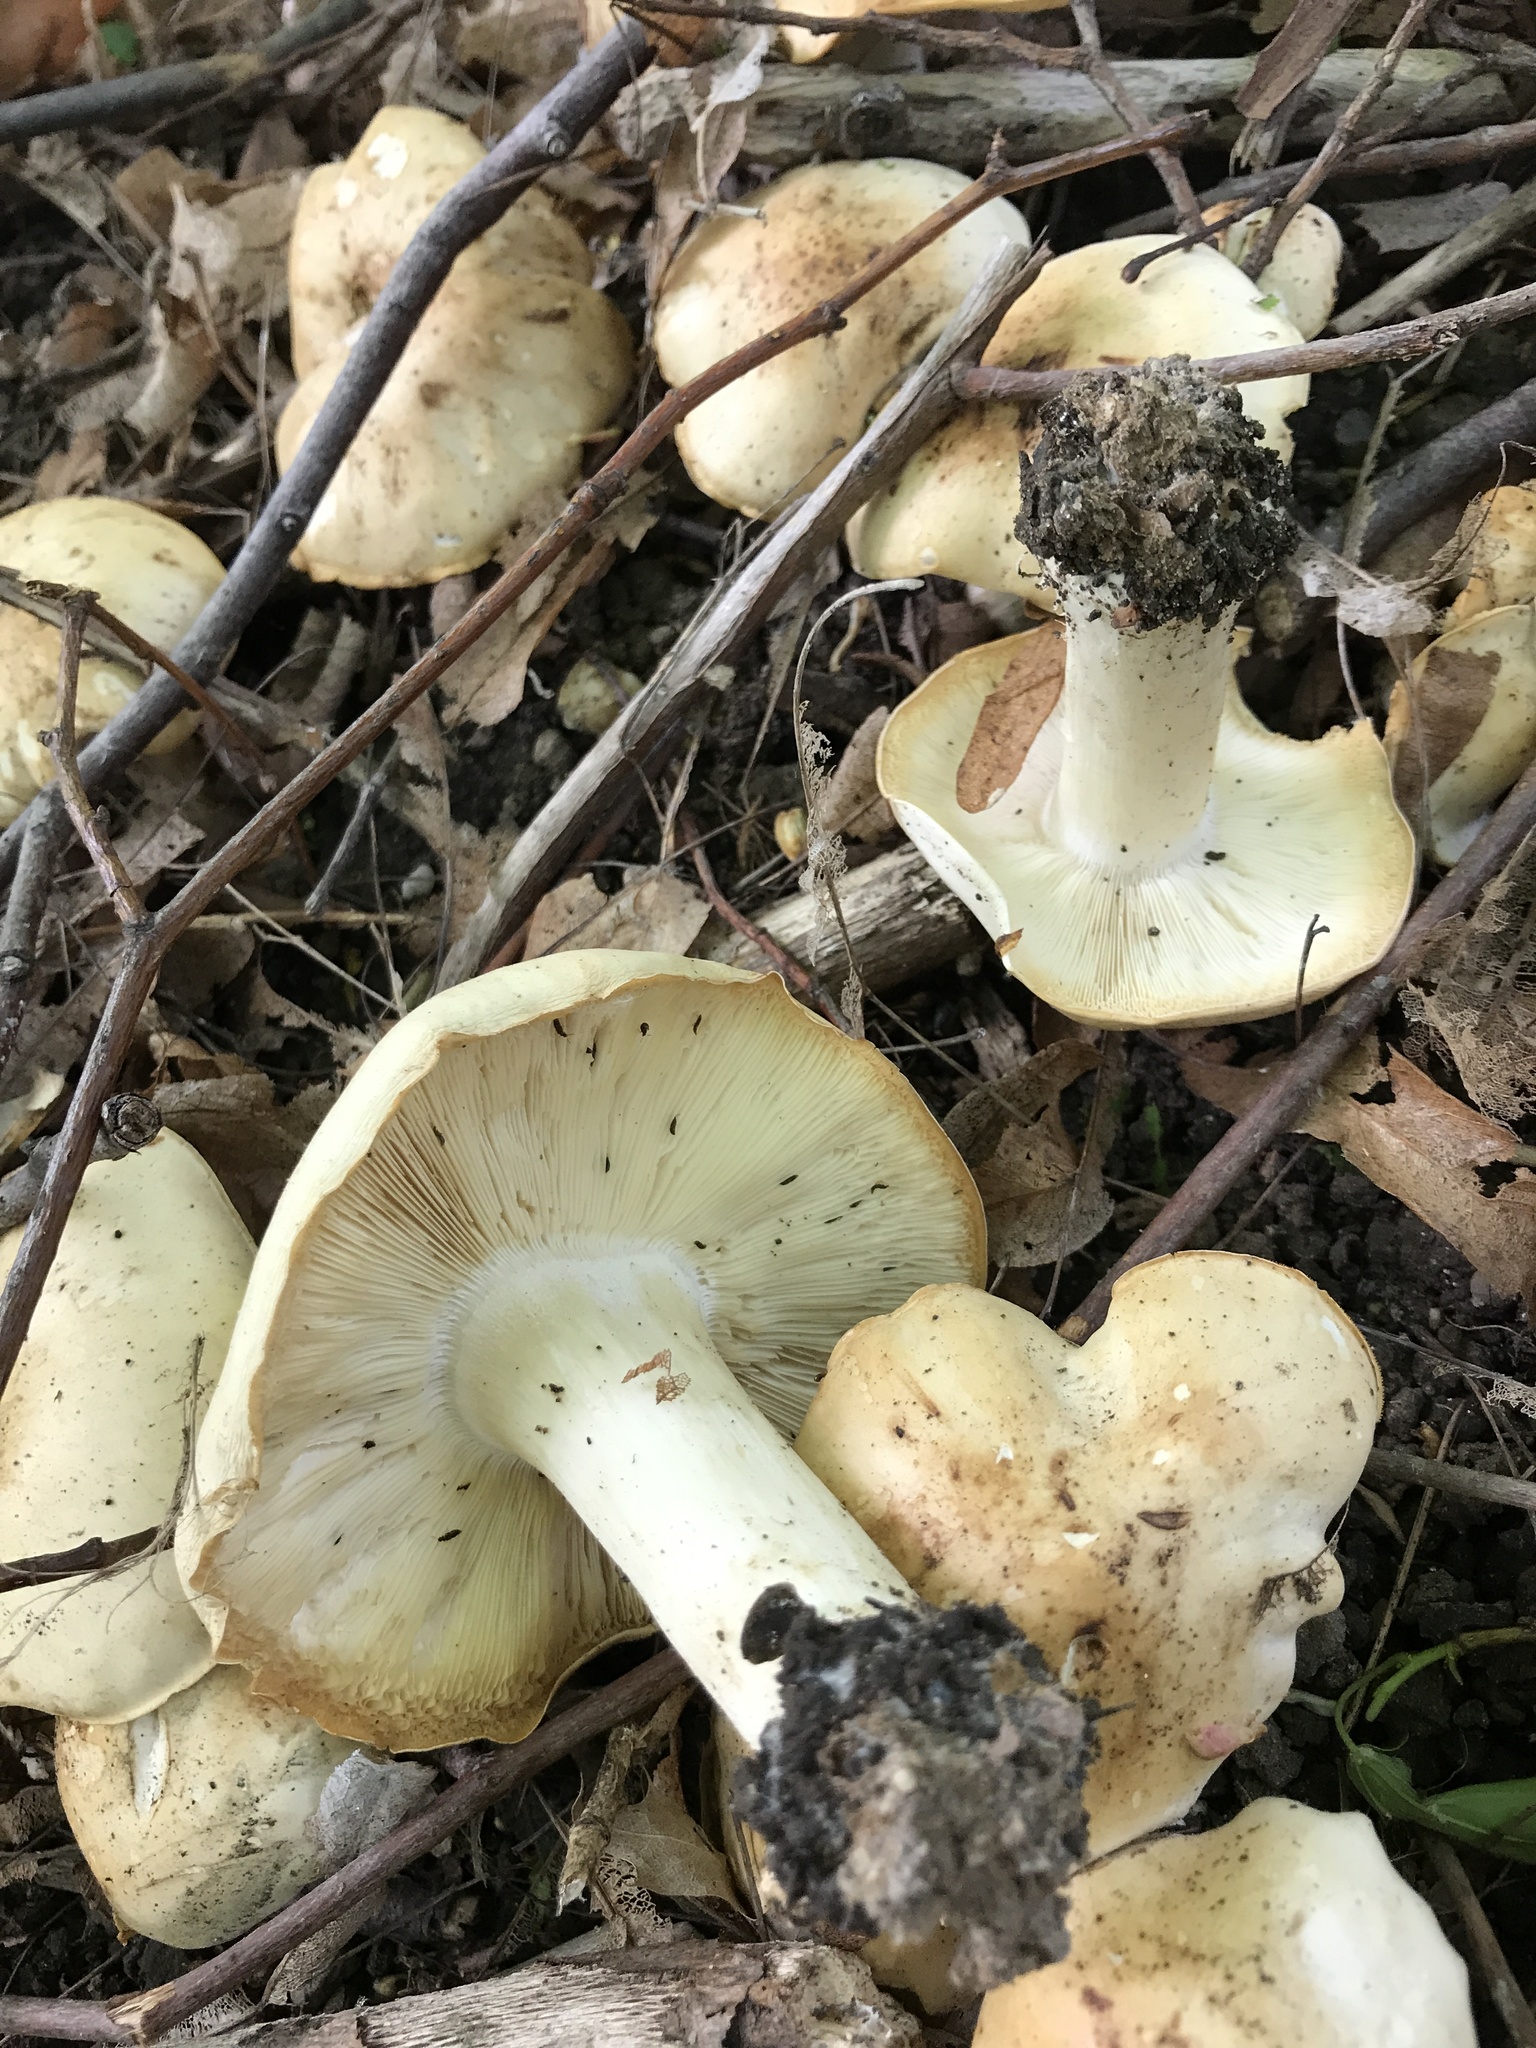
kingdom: Fungi
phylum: Basidiomycota
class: Agaricomycetes
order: Agaricales
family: Lyophyllaceae
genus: Calocybe
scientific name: Calocybe gambosa
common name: St. george's mushroom
